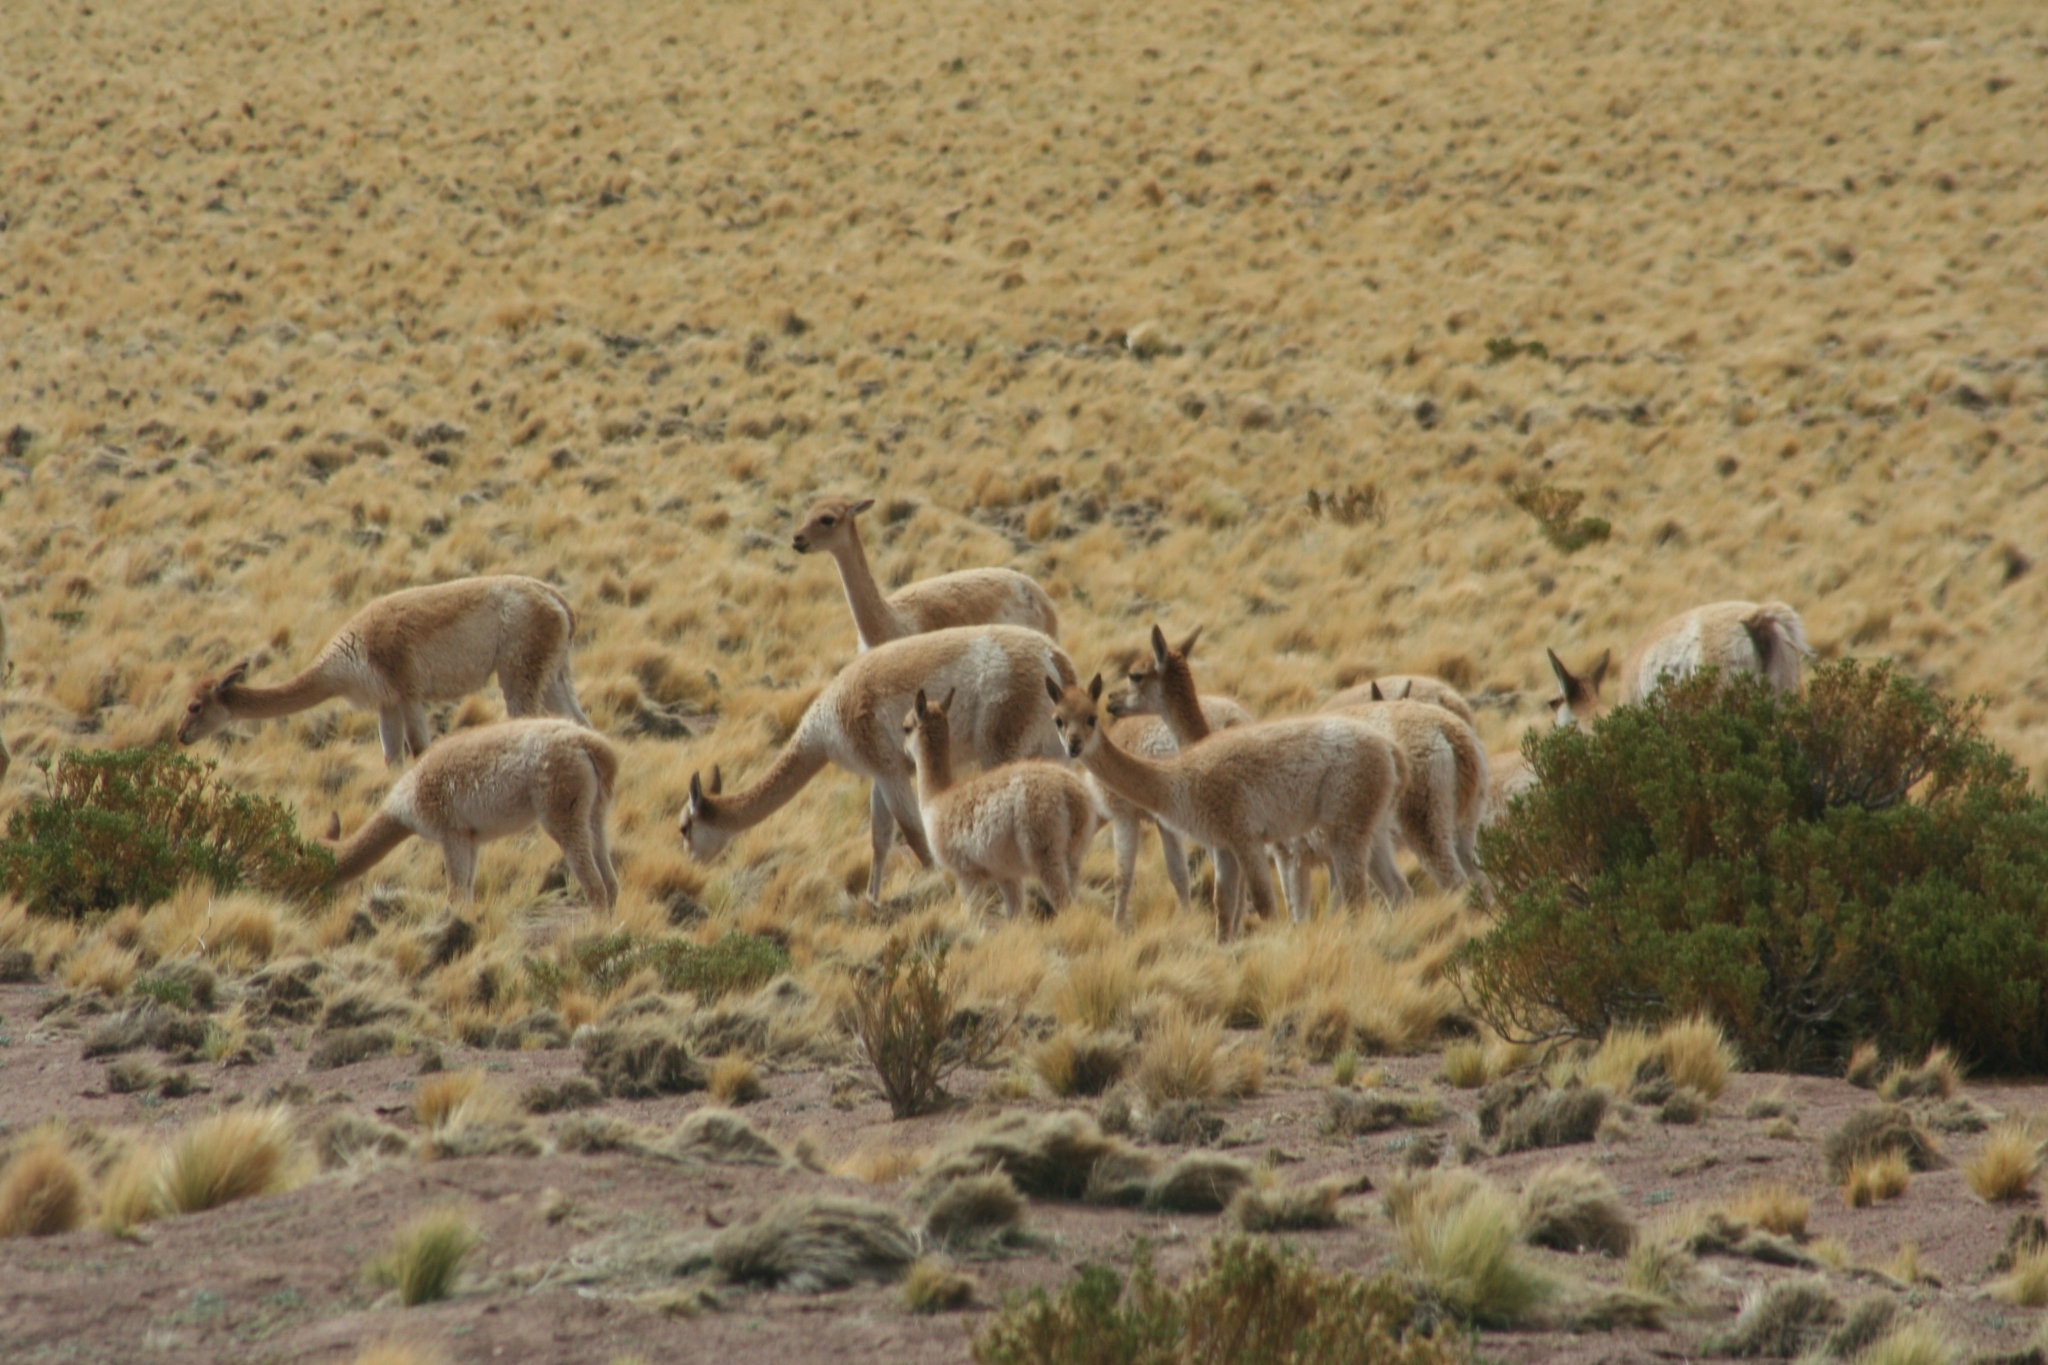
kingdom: Animalia
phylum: Chordata
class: Mammalia
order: Artiodactyla
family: Camelidae
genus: Vicugna
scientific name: Vicugna vicugna
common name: Vicugna
